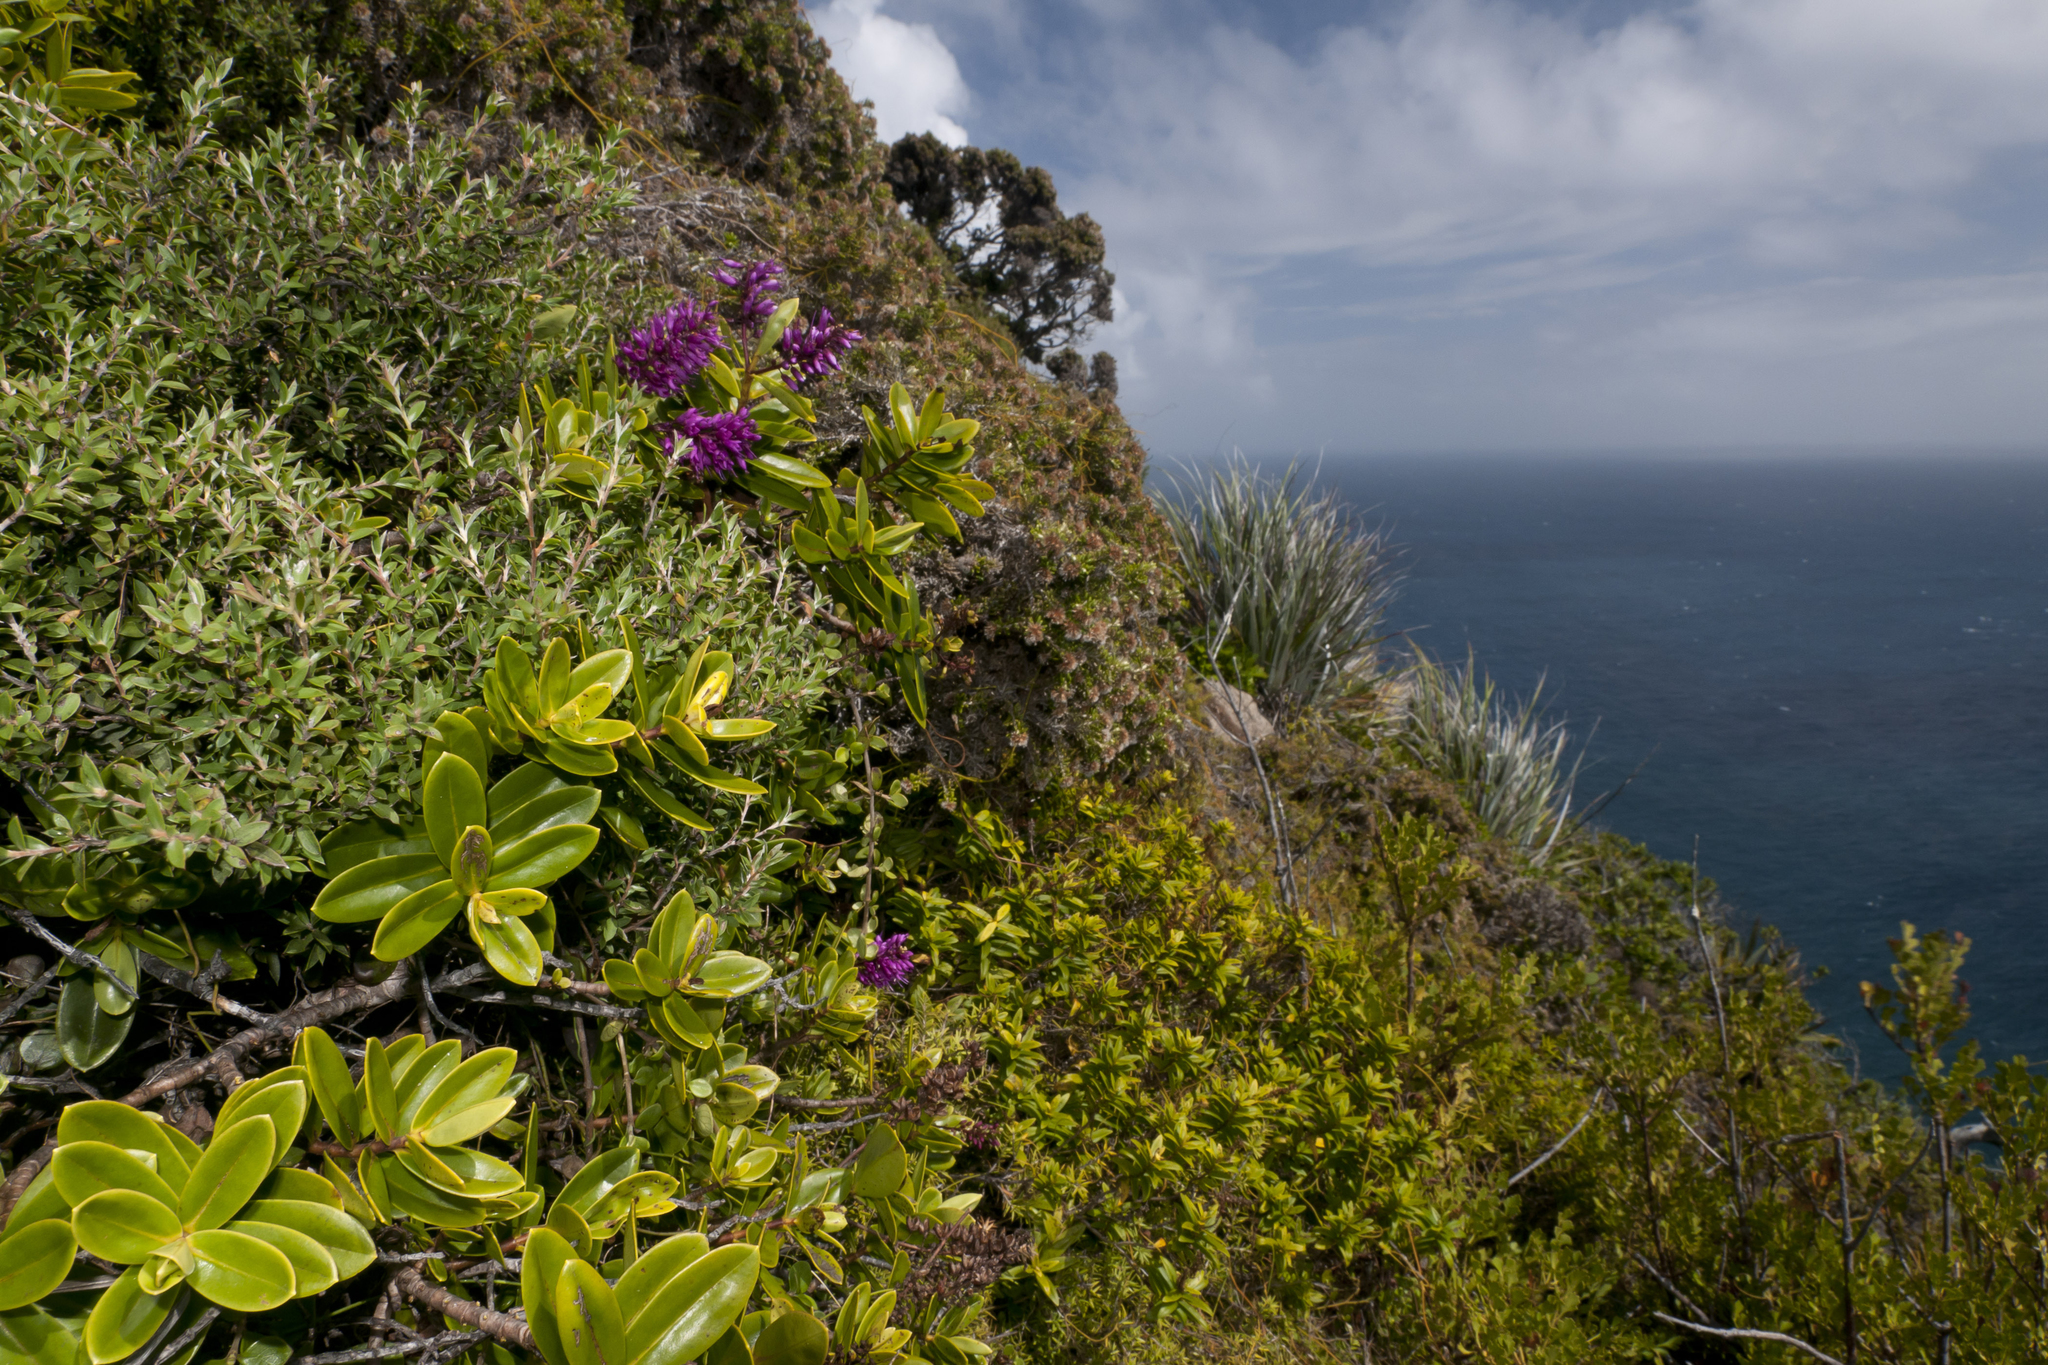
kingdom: Plantae
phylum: Tracheophyta
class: Magnoliopsida
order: Lamiales
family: Plantaginaceae
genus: Veronica
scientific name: Veronica punicea
